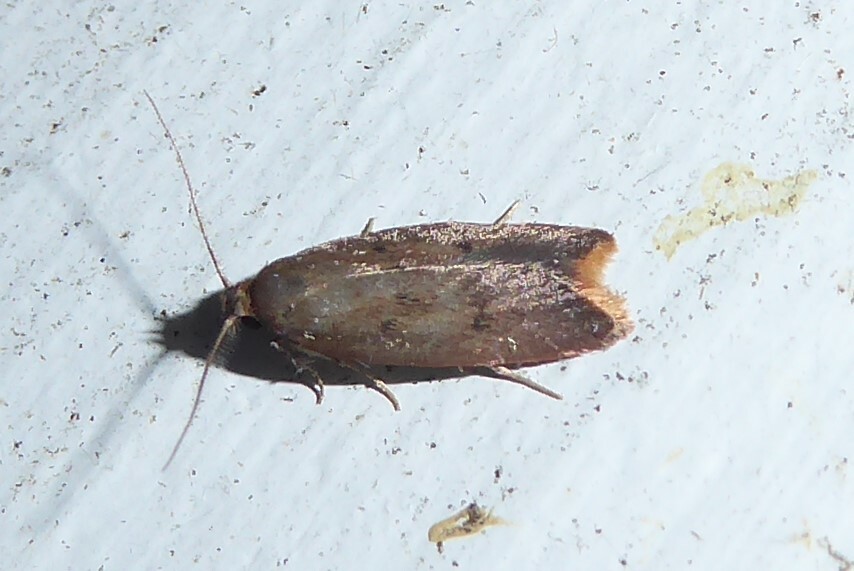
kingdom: Animalia
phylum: Arthropoda
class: Insecta
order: Lepidoptera
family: Oecophoridae
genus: Tachystola
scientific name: Tachystola acroxantha
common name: Ruddy streak
